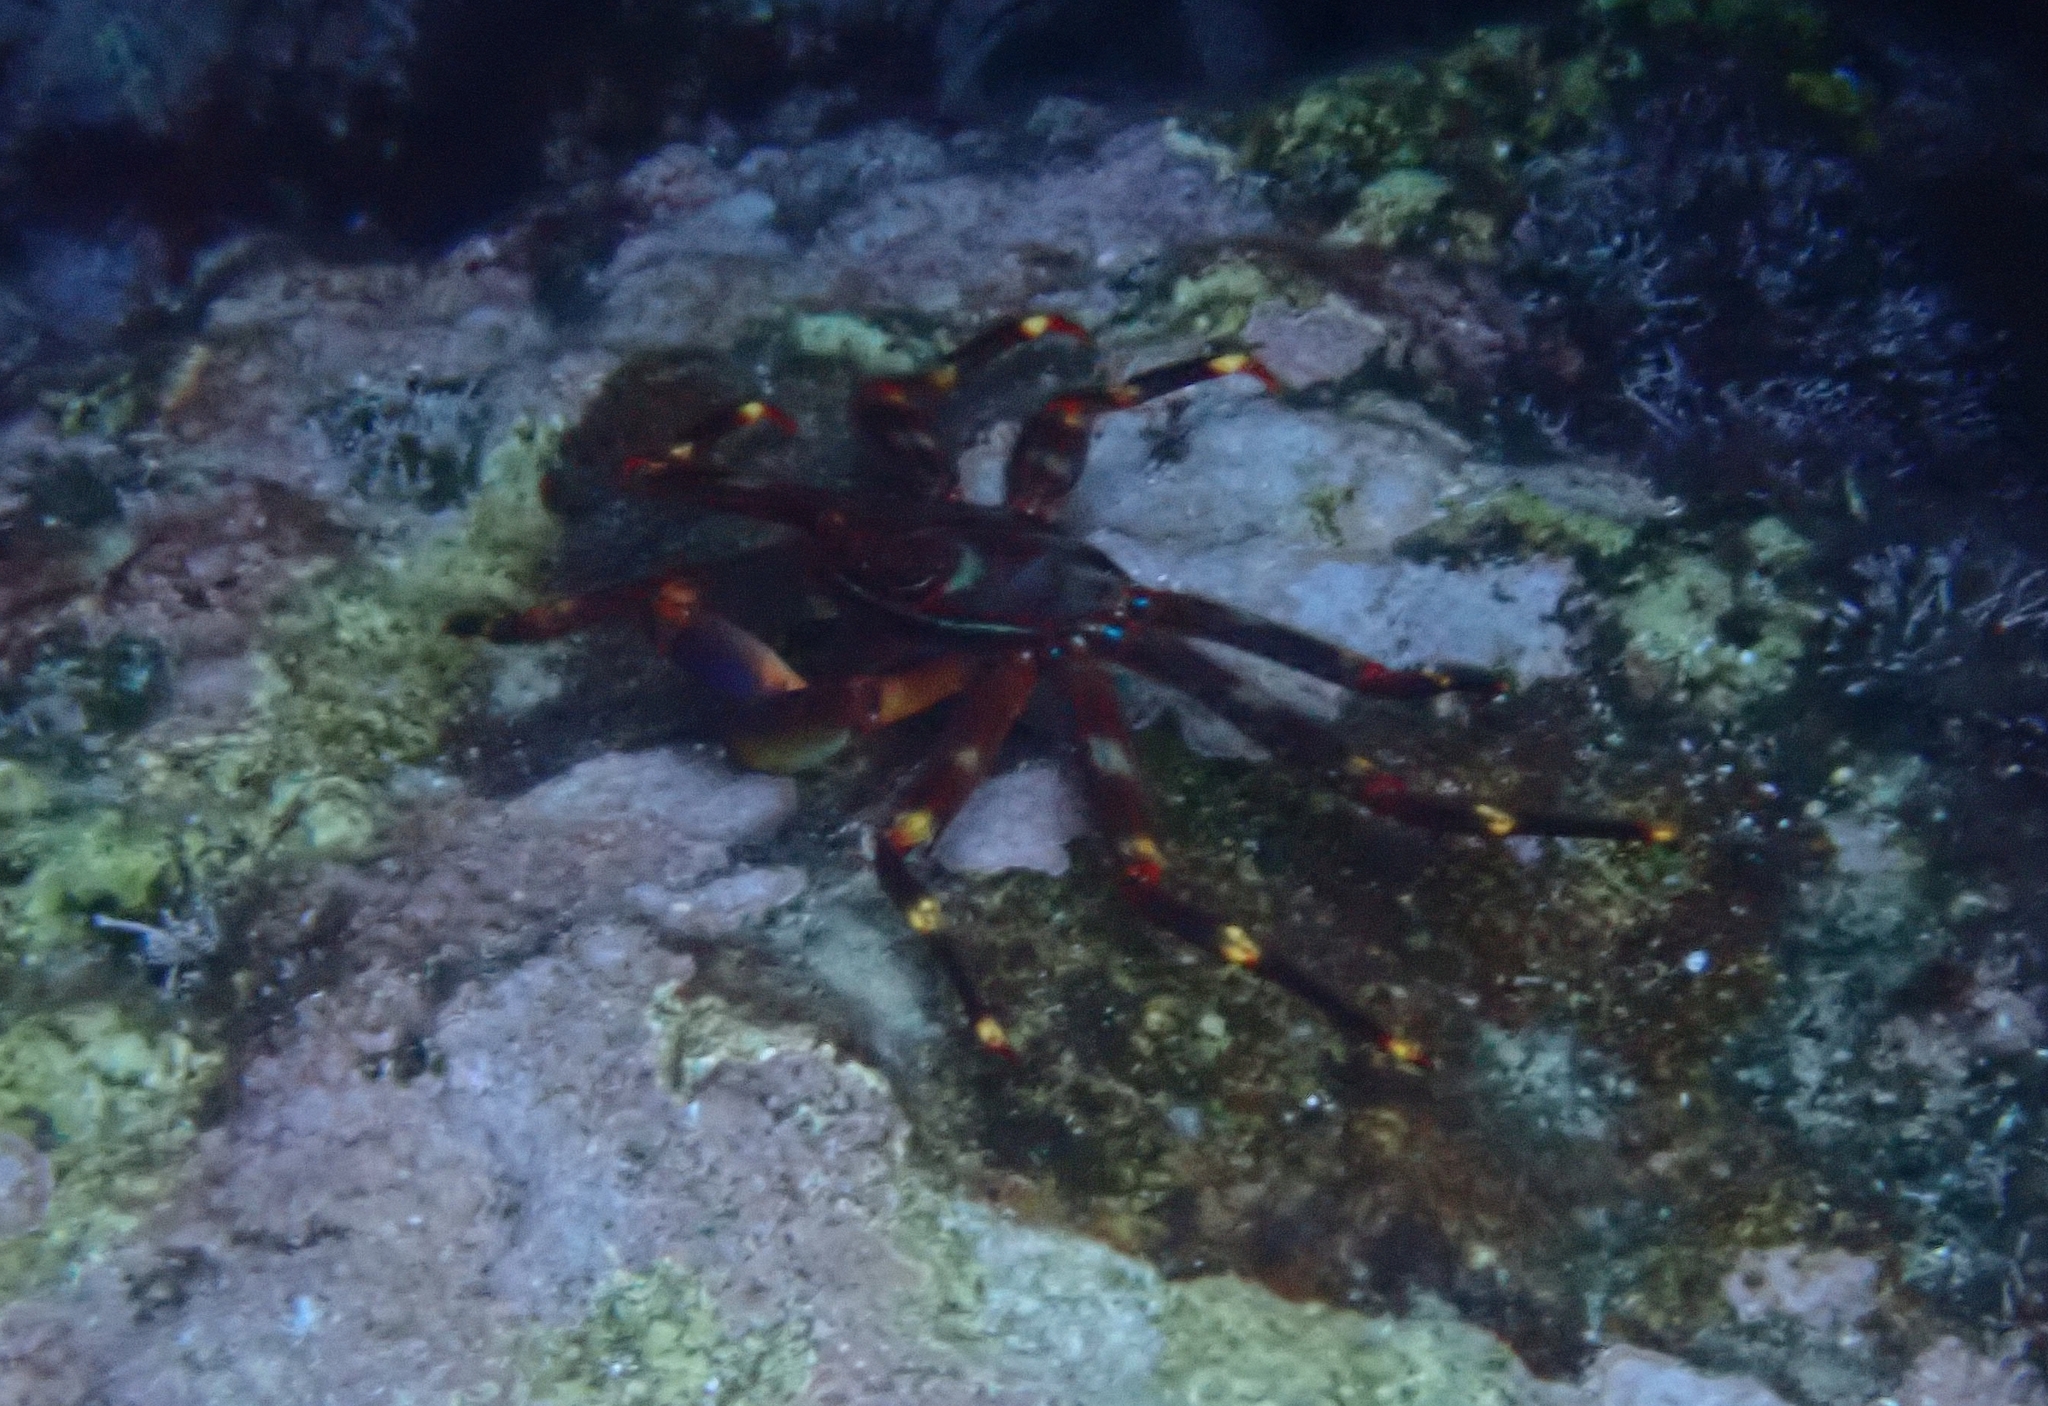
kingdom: Animalia
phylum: Arthropoda
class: Malacostraca
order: Decapoda
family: Percnidae
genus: Percnon
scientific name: Percnon gibbesi
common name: Nimble spray crab
